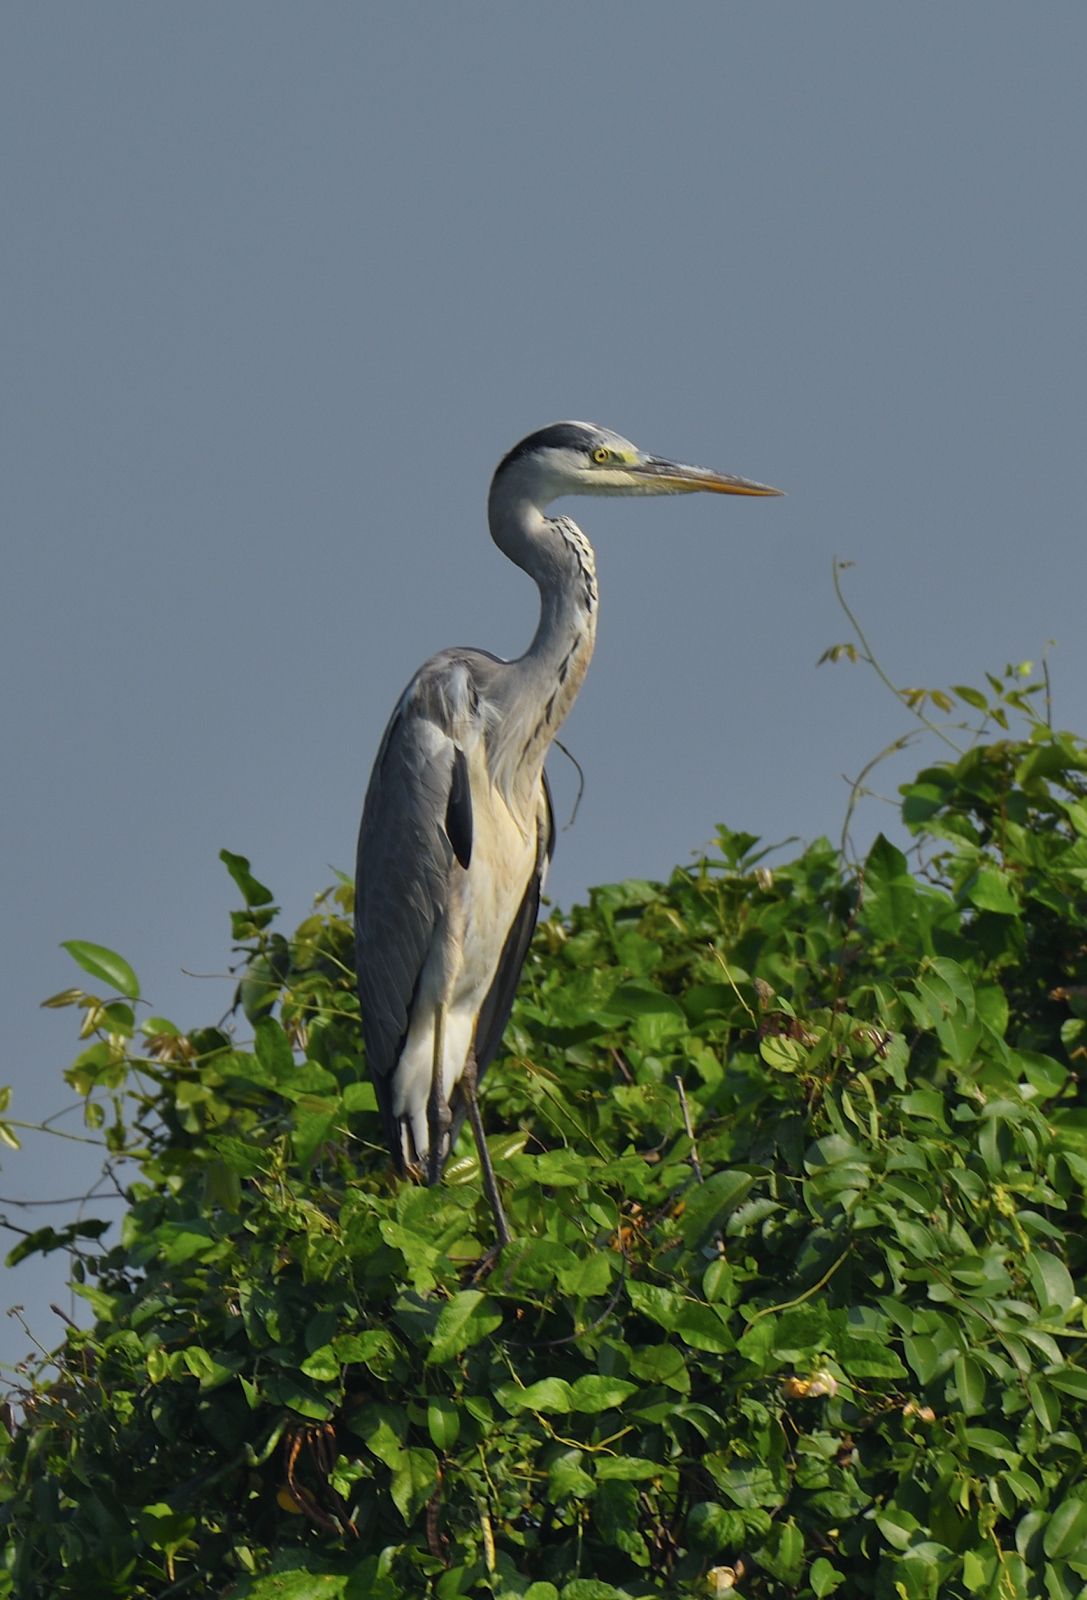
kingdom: Animalia
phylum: Chordata
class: Aves
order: Pelecaniformes
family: Ardeidae
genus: Ardea
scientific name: Ardea cinerea
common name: Grey heron
